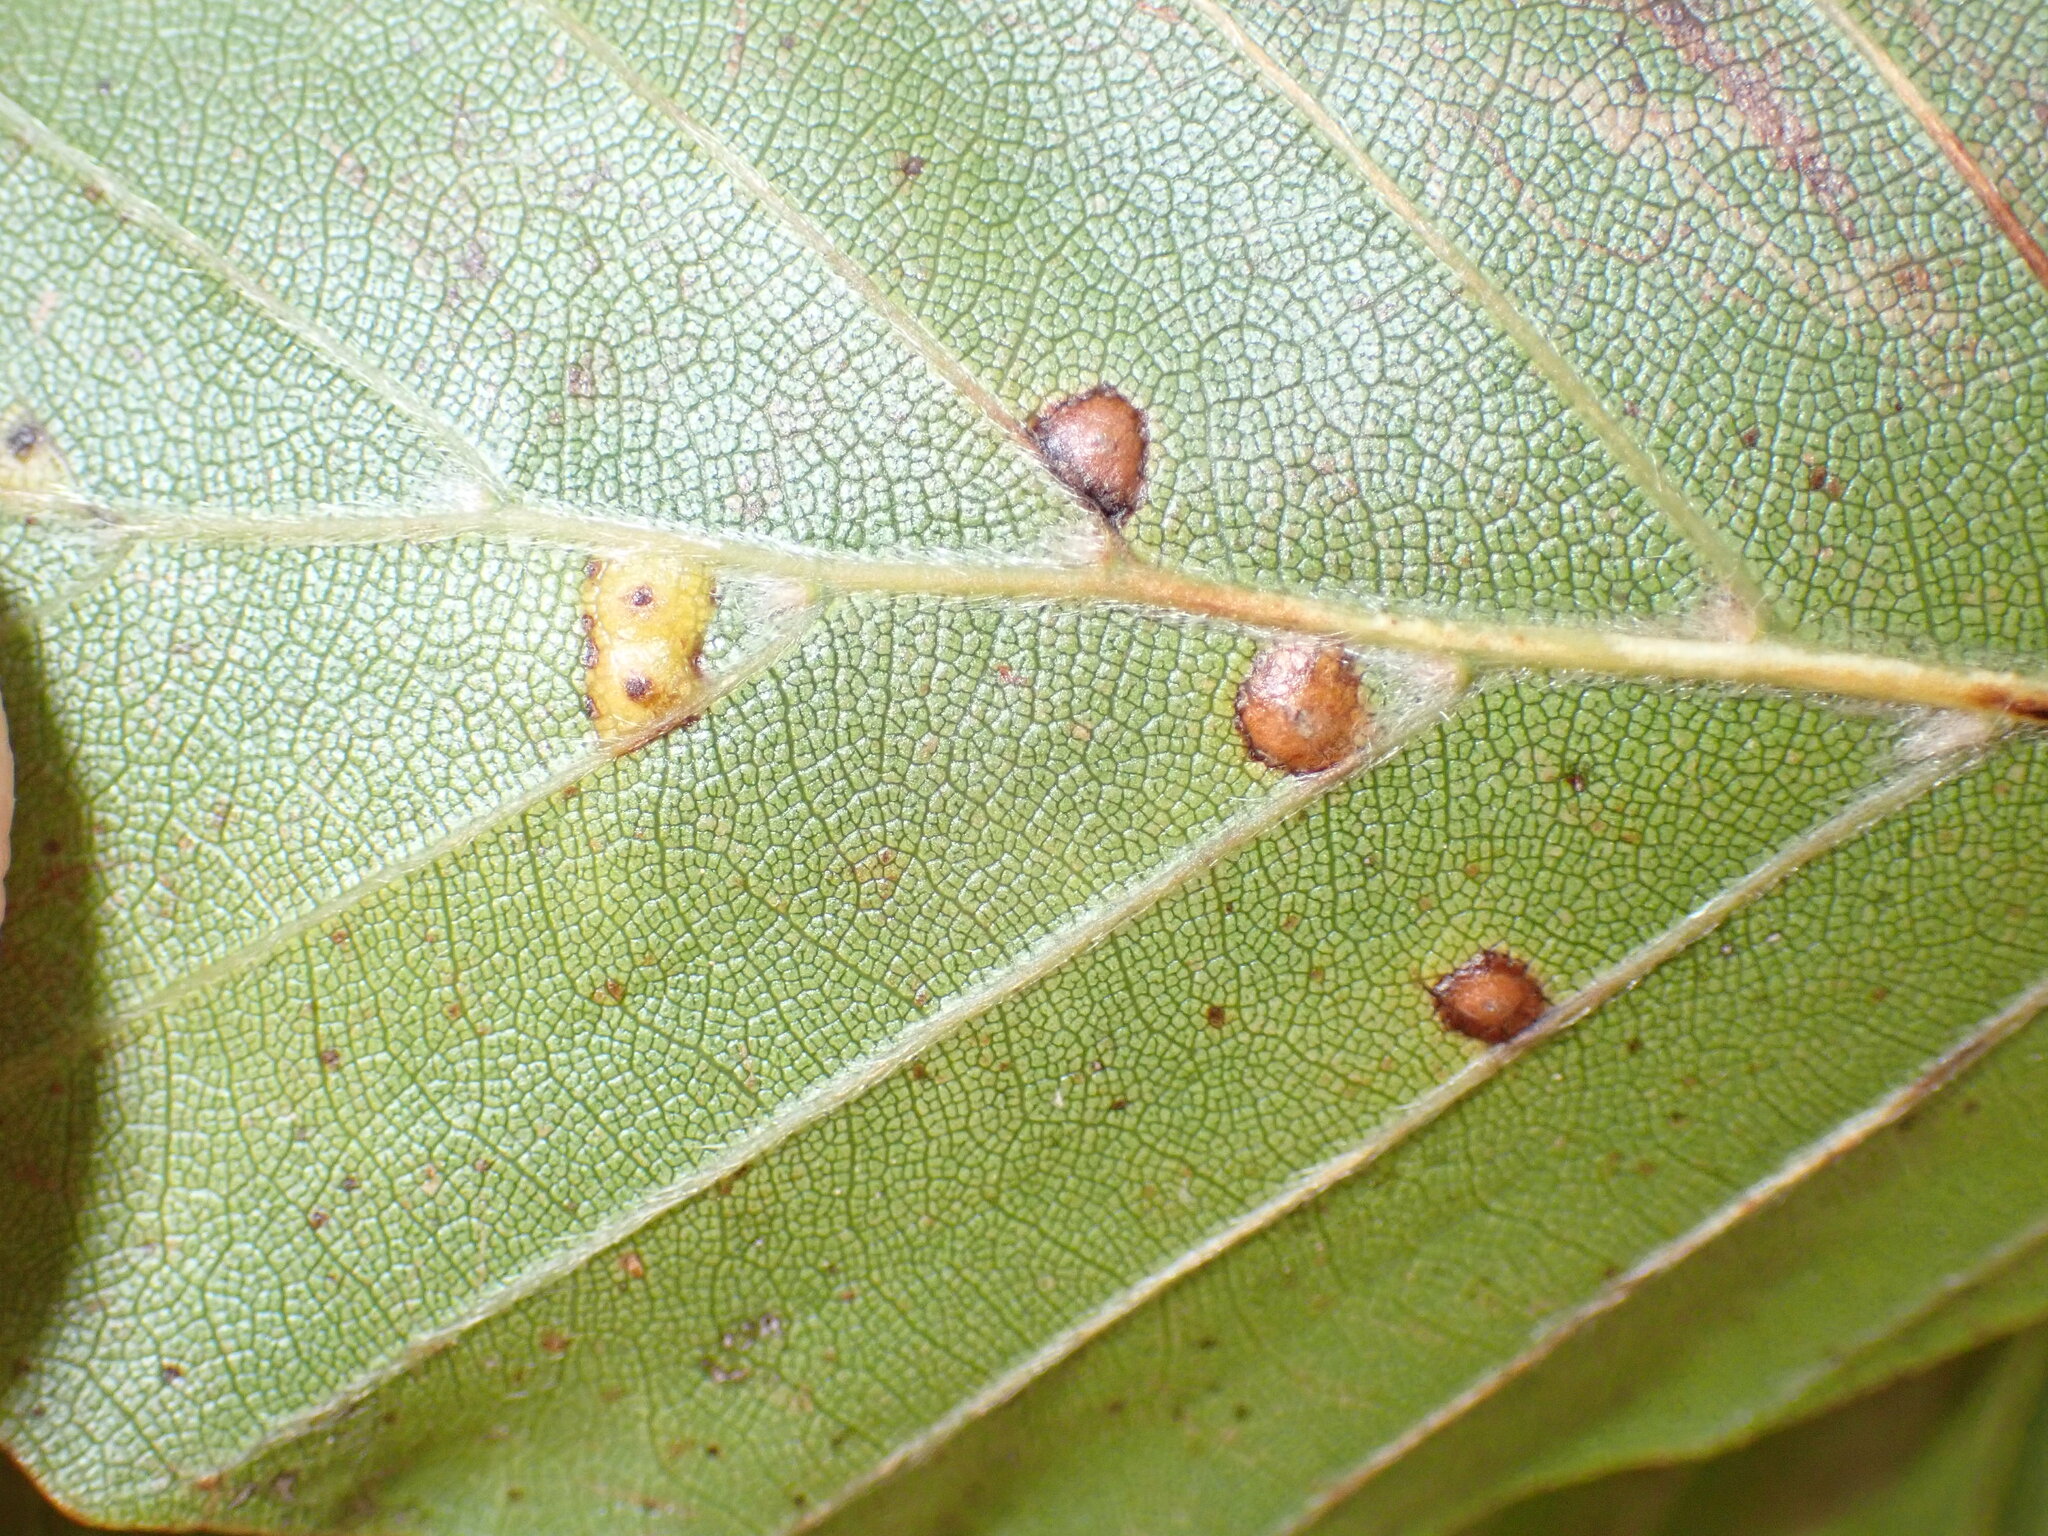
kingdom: Animalia
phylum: Arthropoda
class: Insecta
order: Diptera
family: Cecidomyiidae
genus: Hartigiola
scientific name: Hartigiola annulipes
